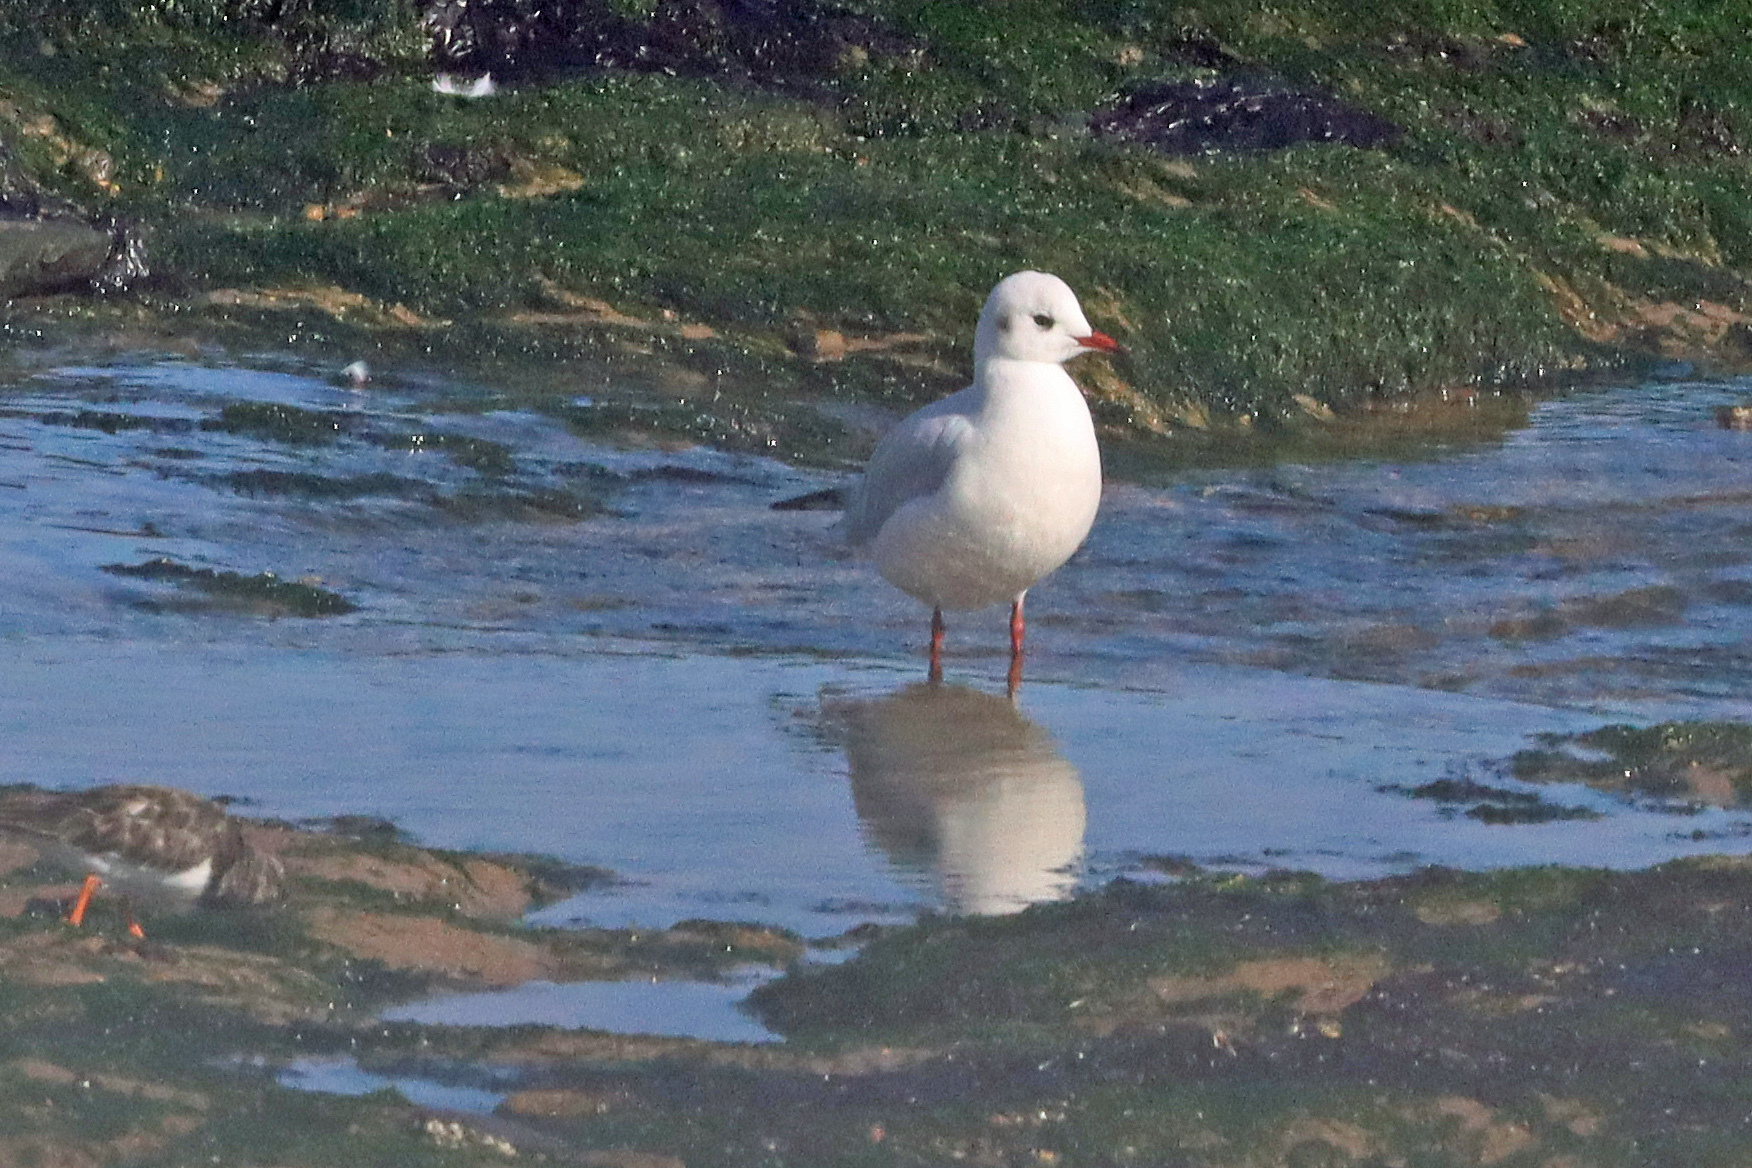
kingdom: Animalia
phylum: Chordata
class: Aves
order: Charadriiformes
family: Laridae
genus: Chroicocephalus
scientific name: Chroicocephalus ridibundus
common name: Black-headed gull
